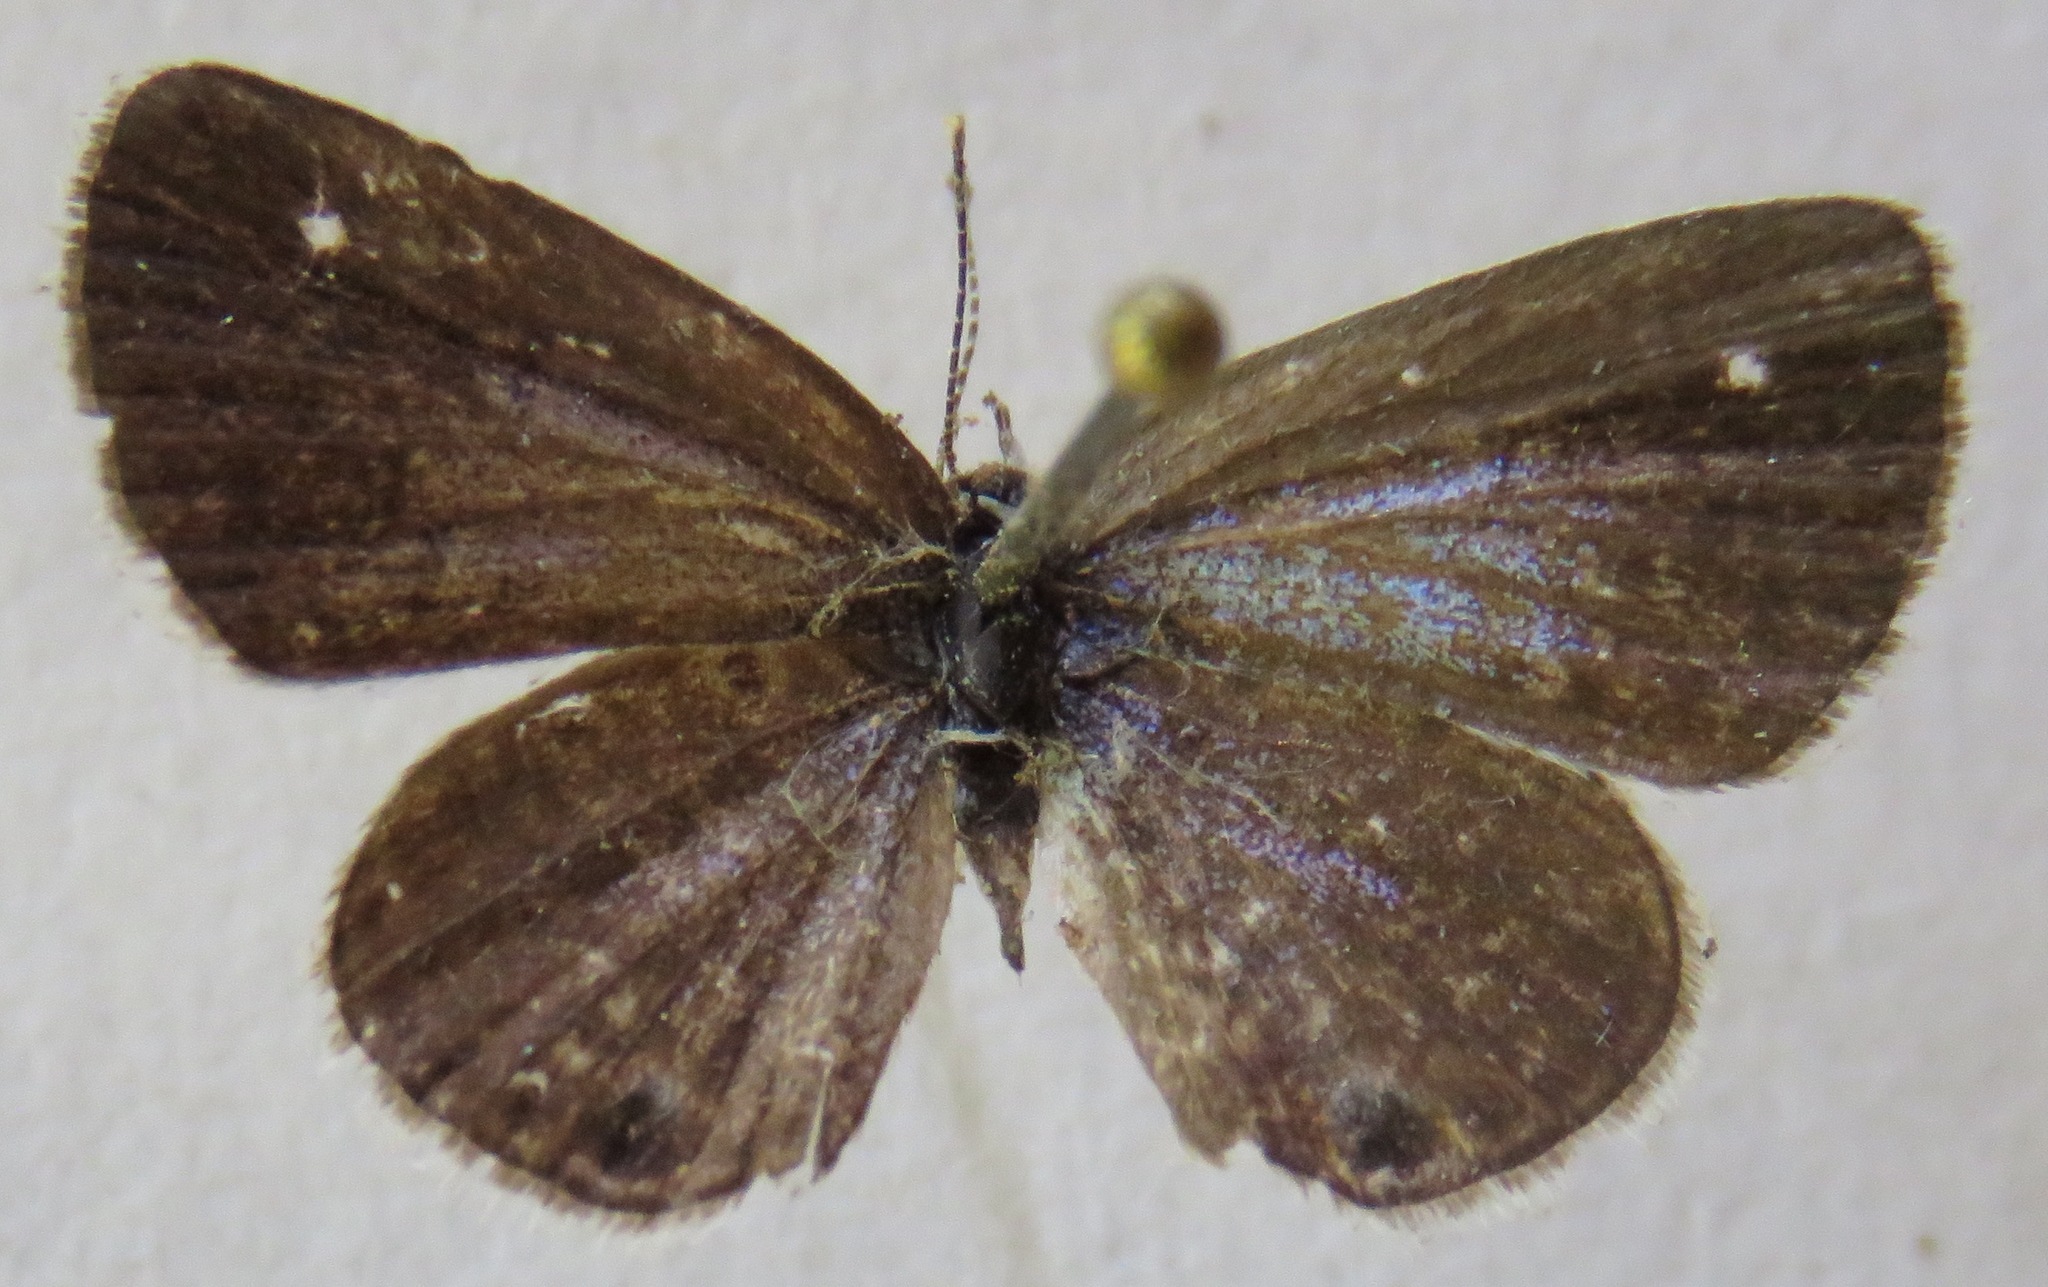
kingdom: Animalia
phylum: Arthropoda
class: Insecta
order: Lepidoptera
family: Lycaenidae
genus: Hemiargus
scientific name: Hemiargus
